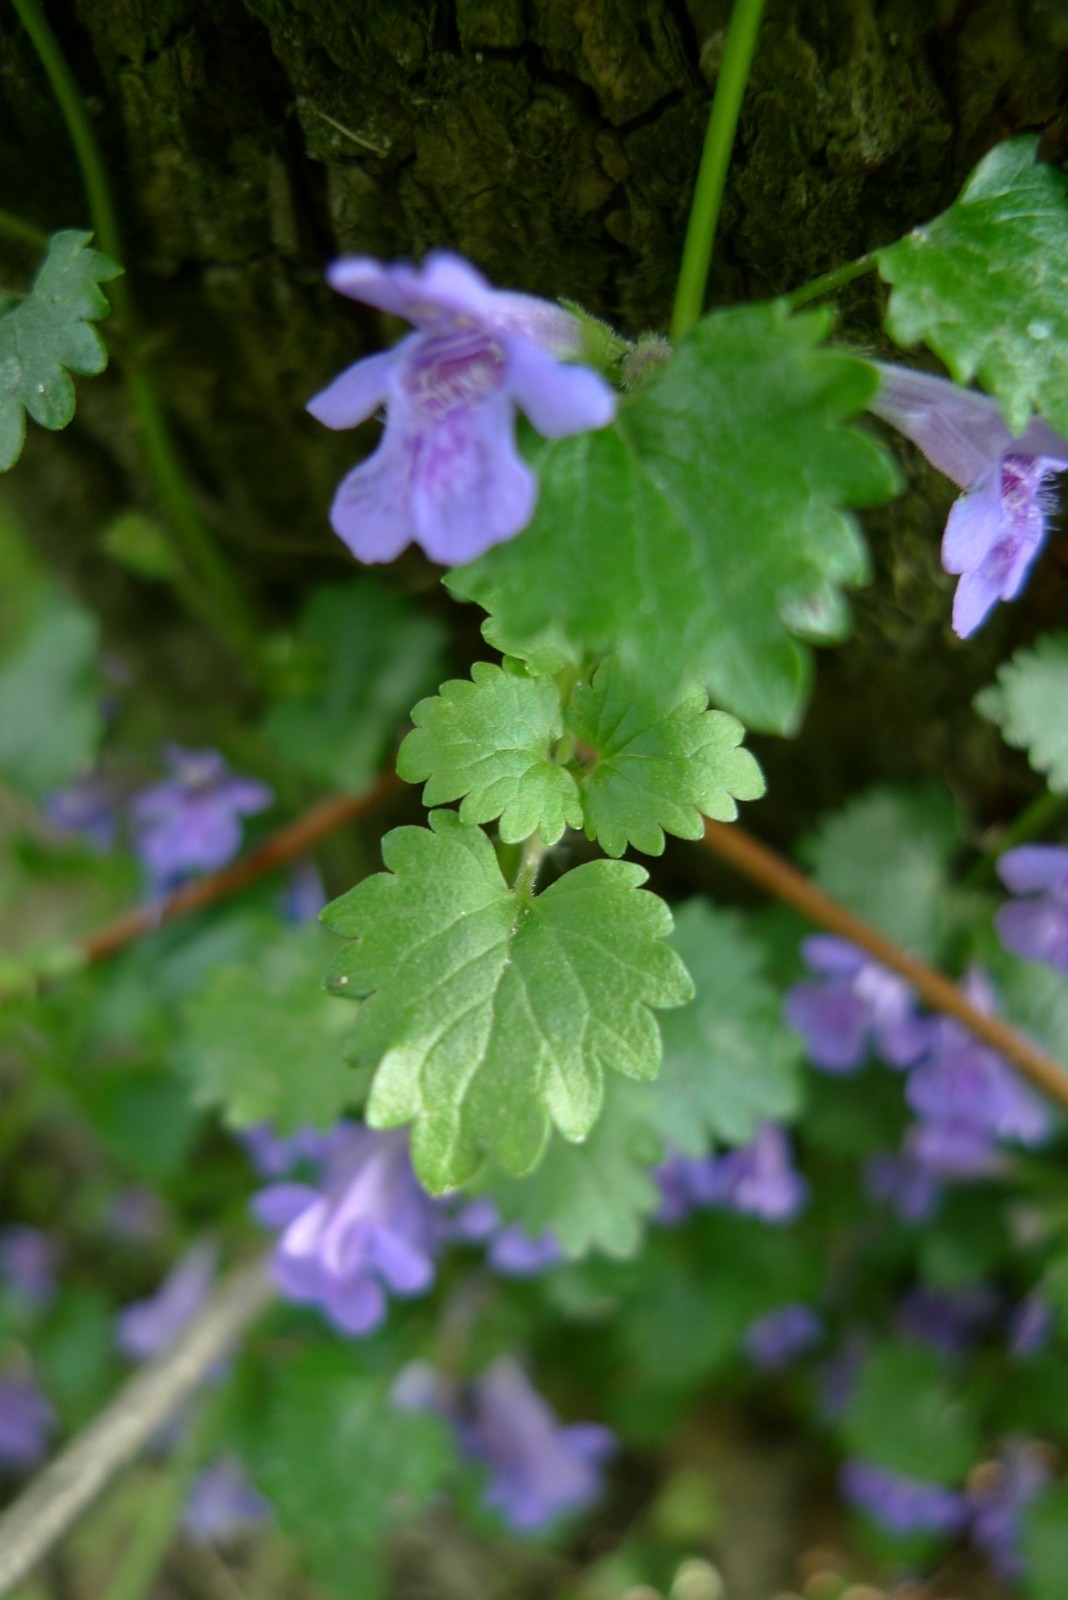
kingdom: Plantae
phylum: Tracheophyta
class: Magnoliopsida
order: Lamiales
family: Lamiaceae
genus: Glechoma
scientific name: Glechoma hederacea
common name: Ground ivy
